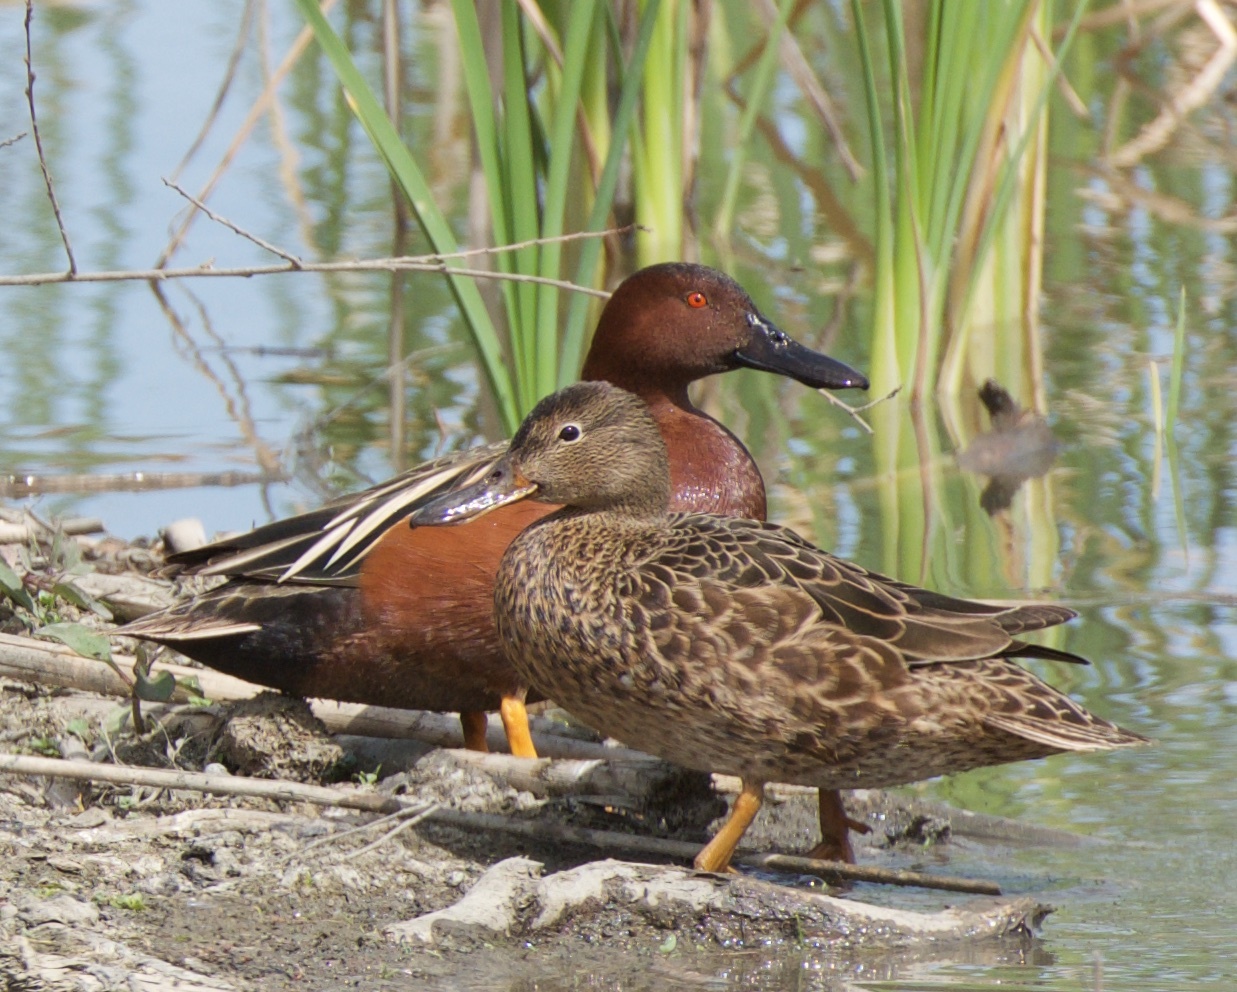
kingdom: Animalia
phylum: Chordata
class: Aves
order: Anseriformes
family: Anatidae
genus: Spatula
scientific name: Spatula cyanoptera
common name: Cinnamon teal
